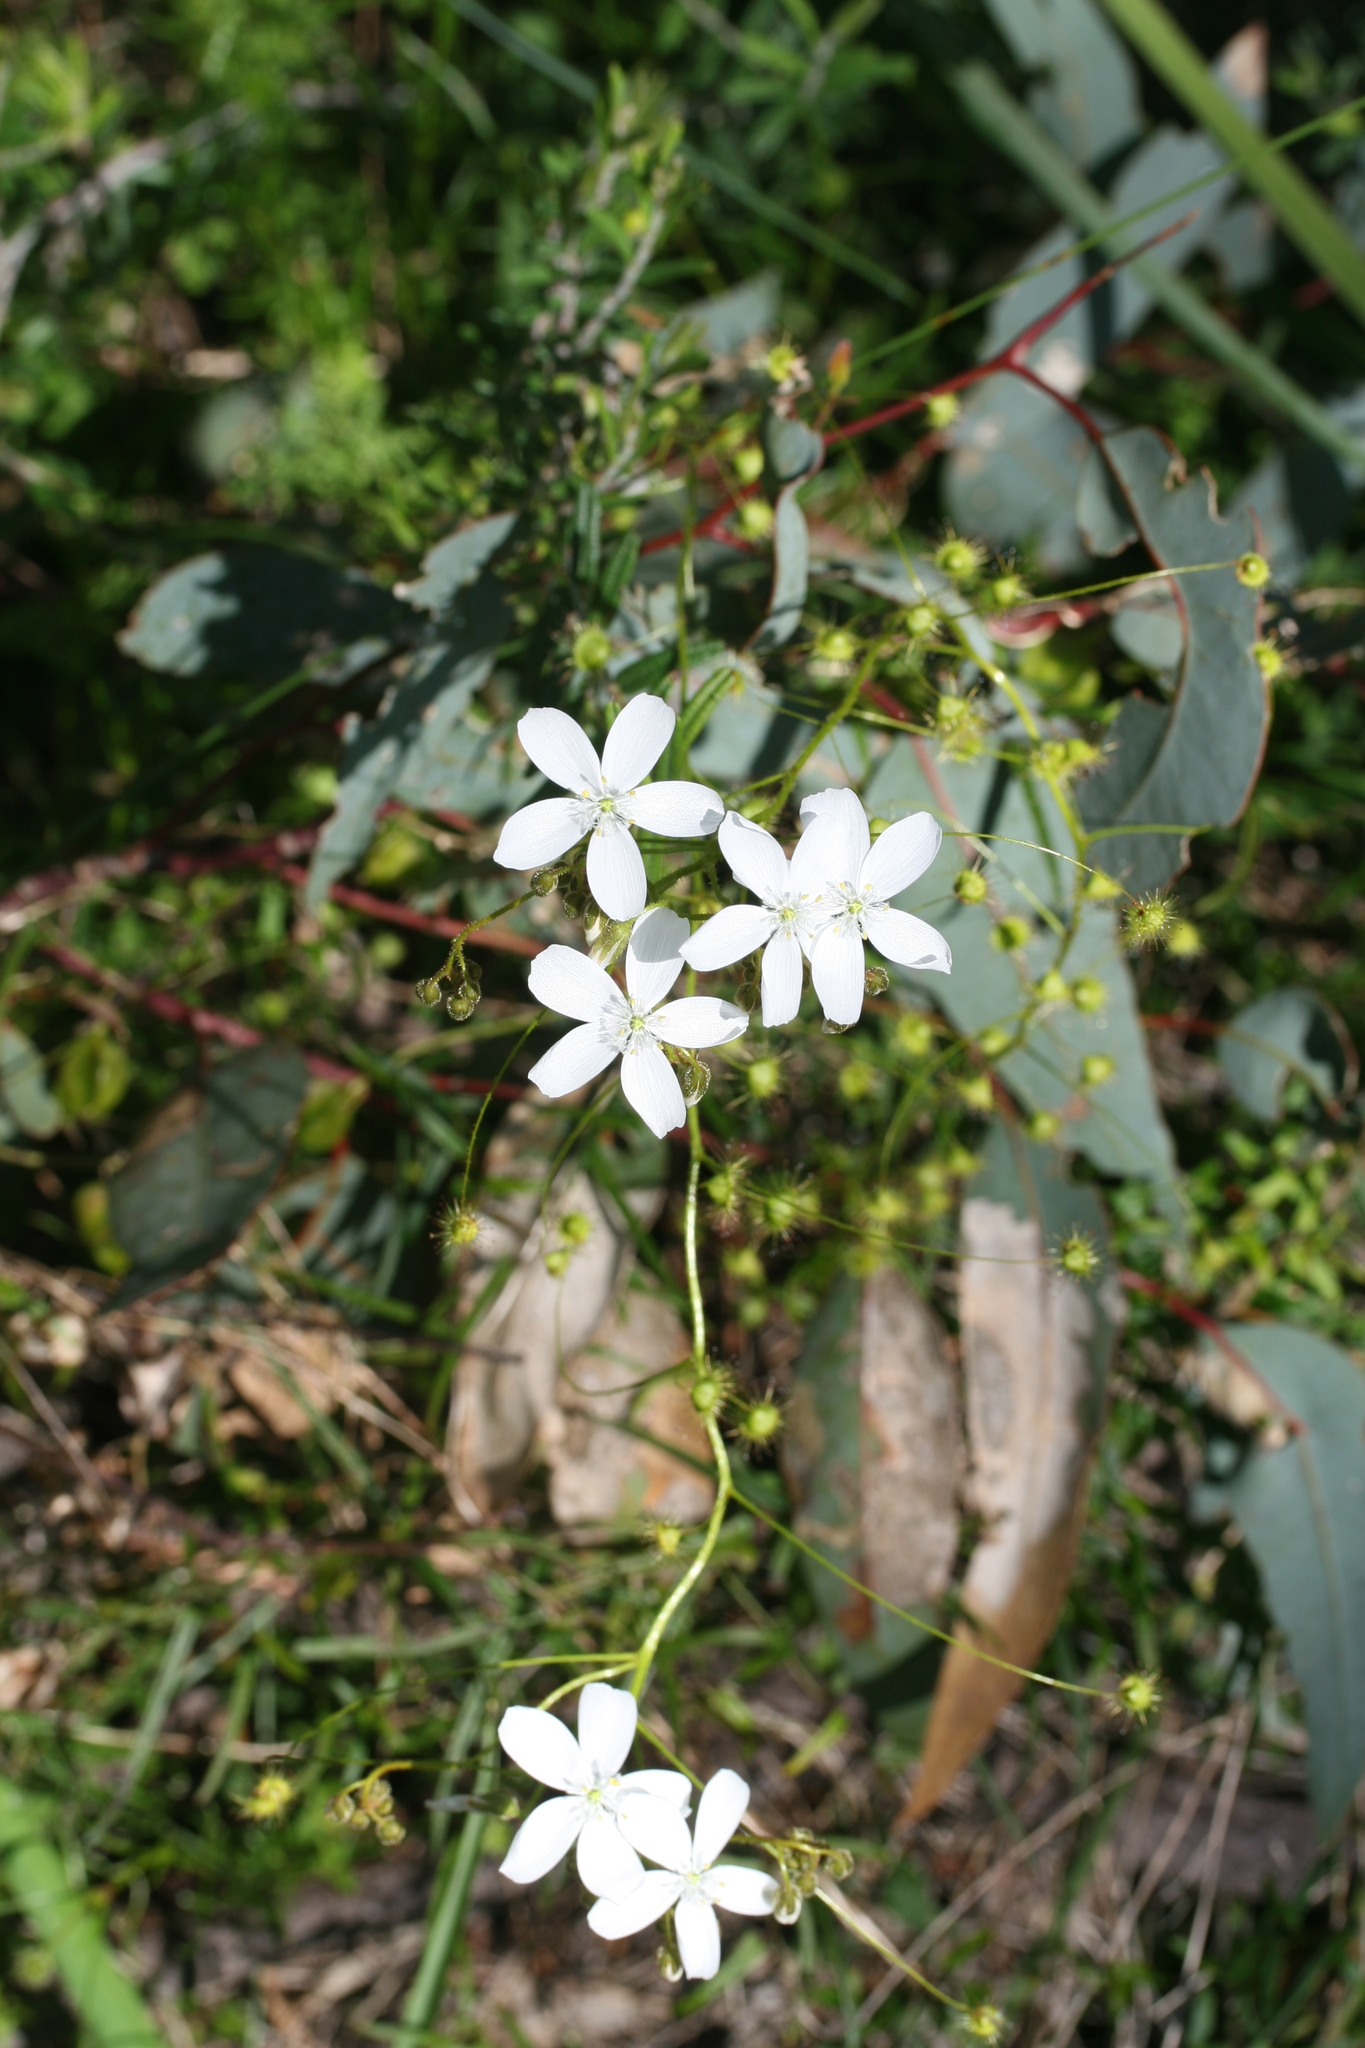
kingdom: Plantae
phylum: Tracheophyta
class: Magnoliopsida
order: Caryophyllales
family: Droseraceae
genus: Drosera
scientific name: Drosera macrantha
